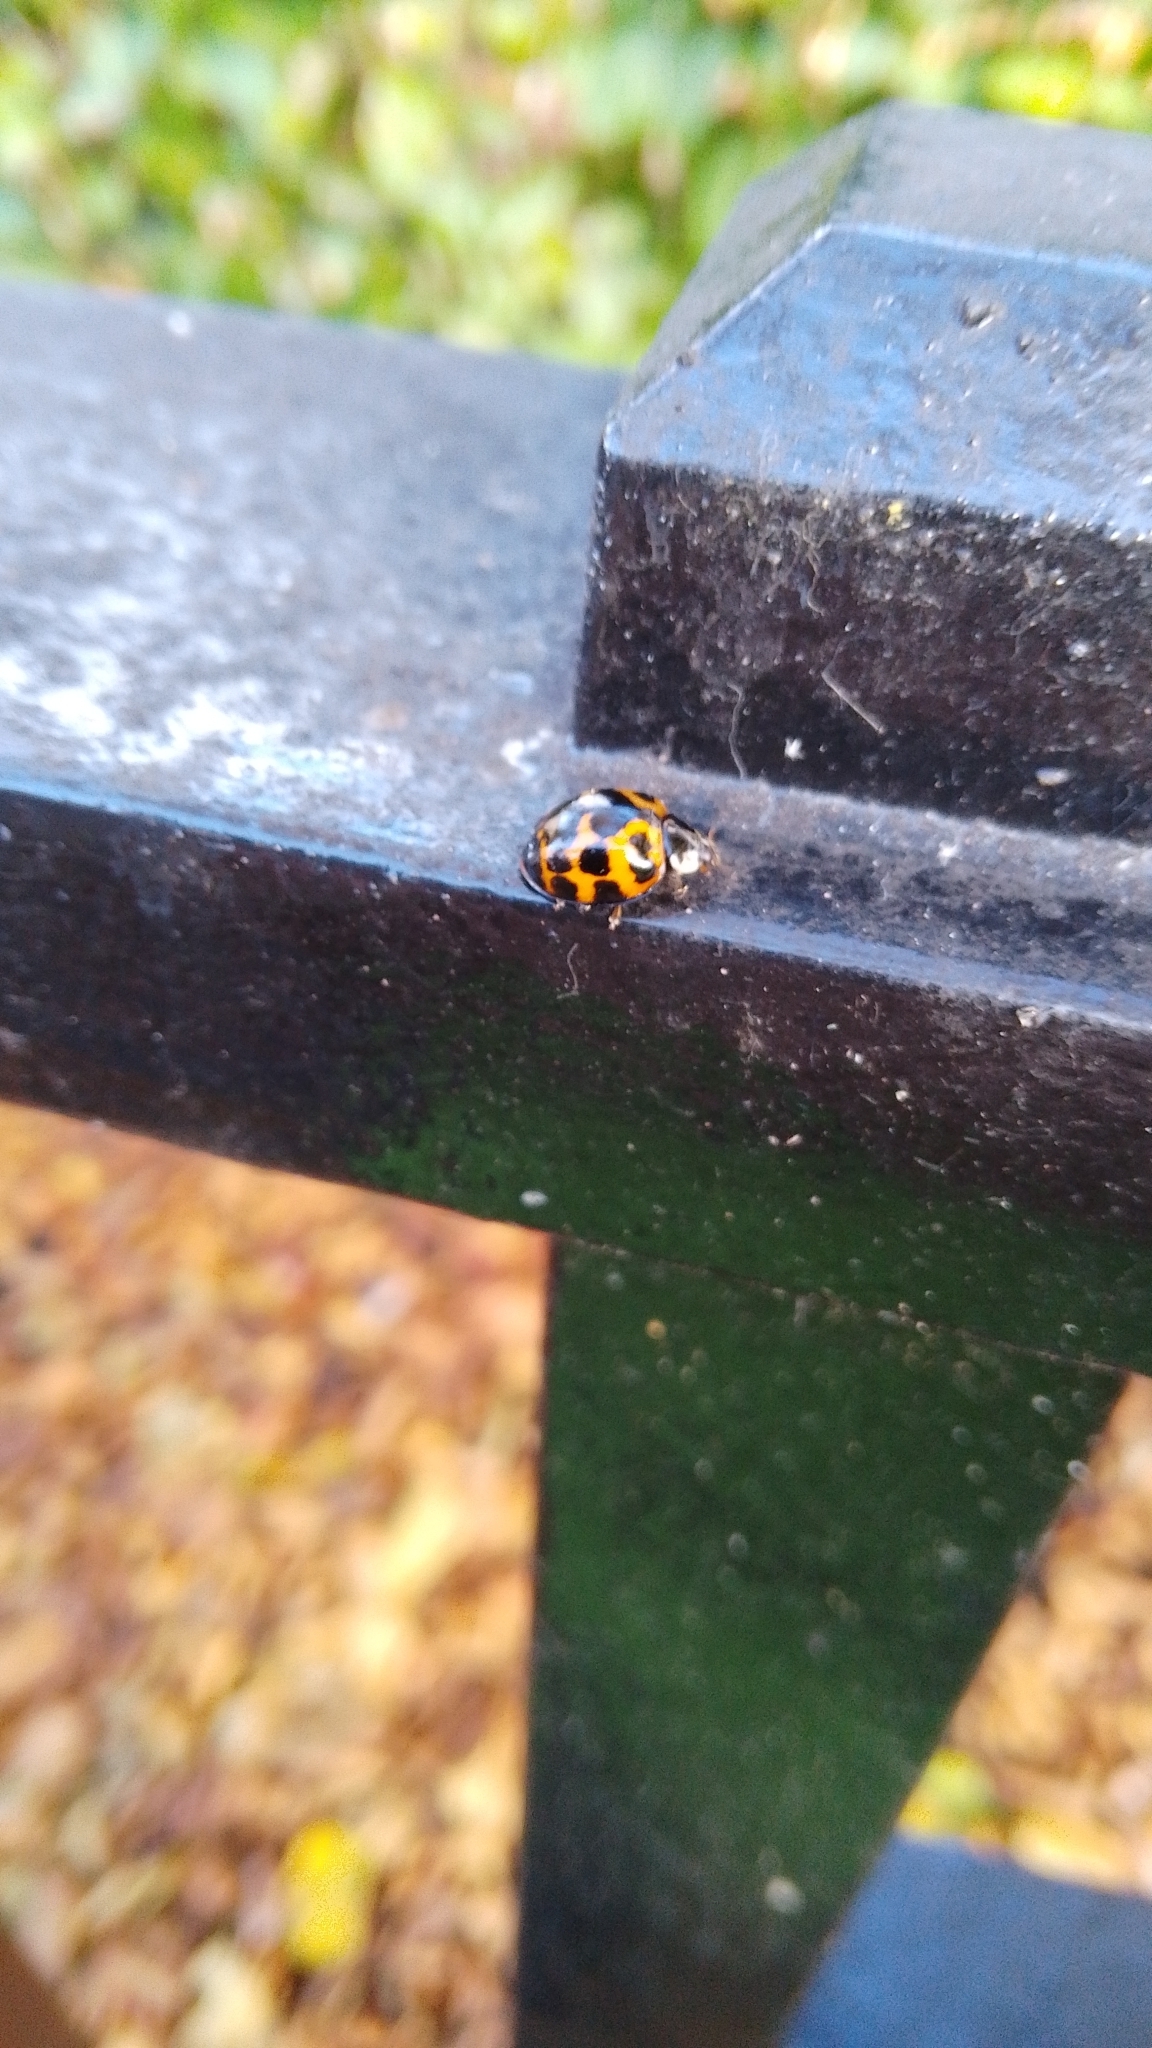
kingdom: Animalia
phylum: Arthropoda
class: Insecta
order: Coleoptera
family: Coccinellidae
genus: Harmonia
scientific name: Harmonia axyridis
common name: Harlequin ladybird
